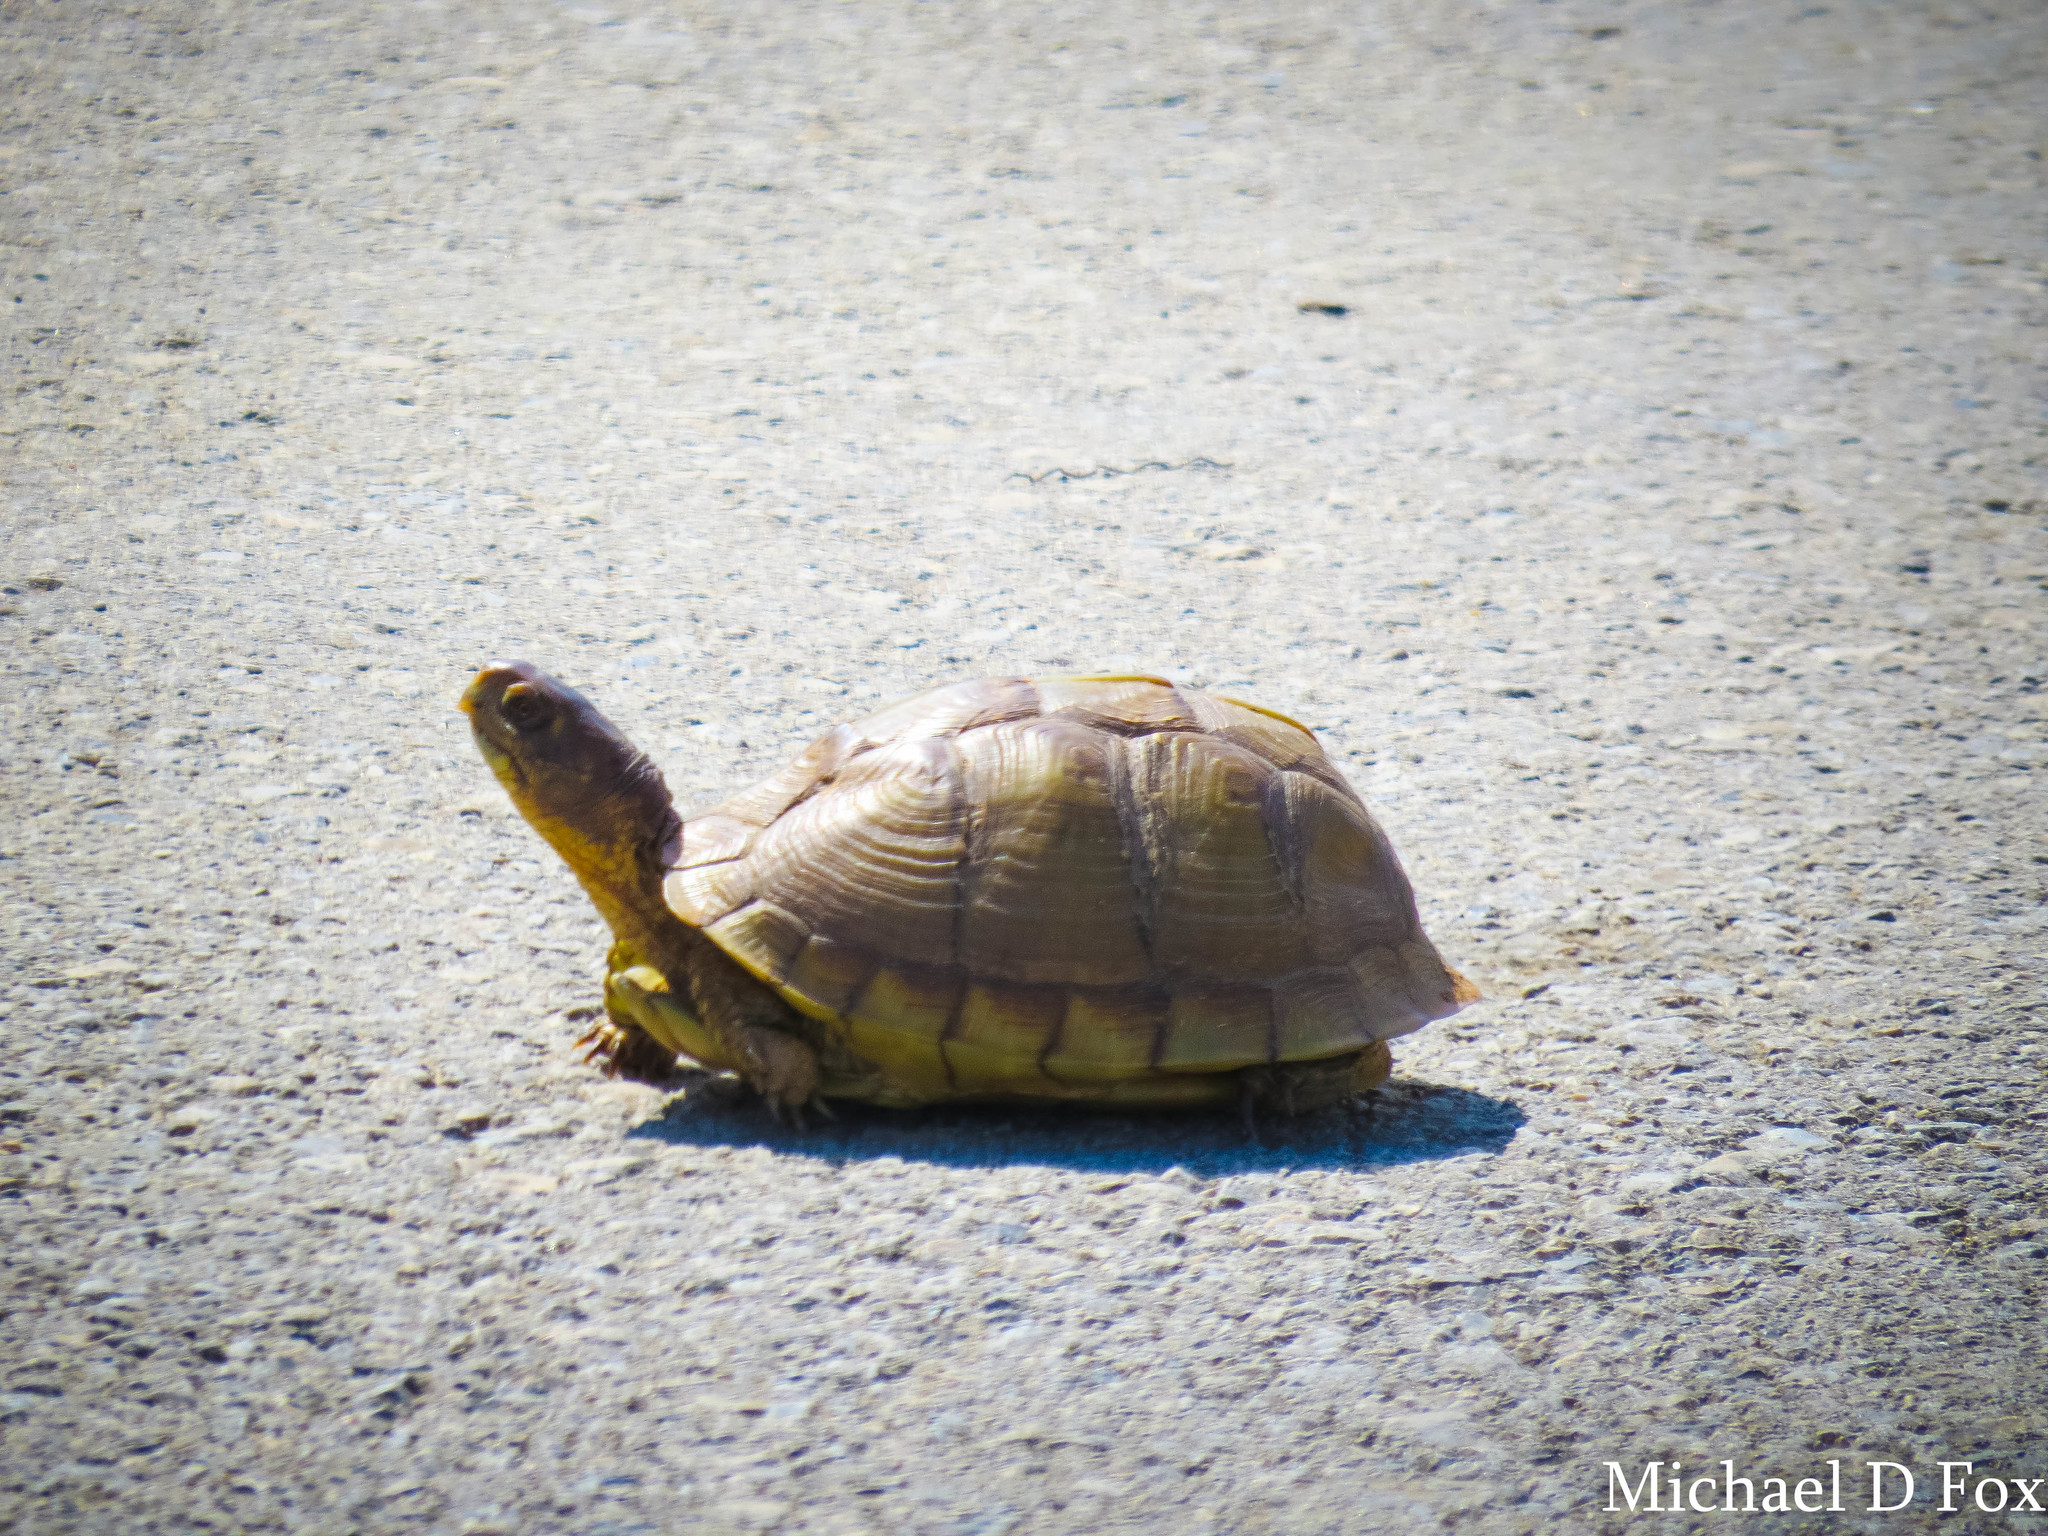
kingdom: Animalia
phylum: Chordata
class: Testudines
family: Emydidae
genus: Terrapene
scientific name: Terrapene carolina
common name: Common box turtle
